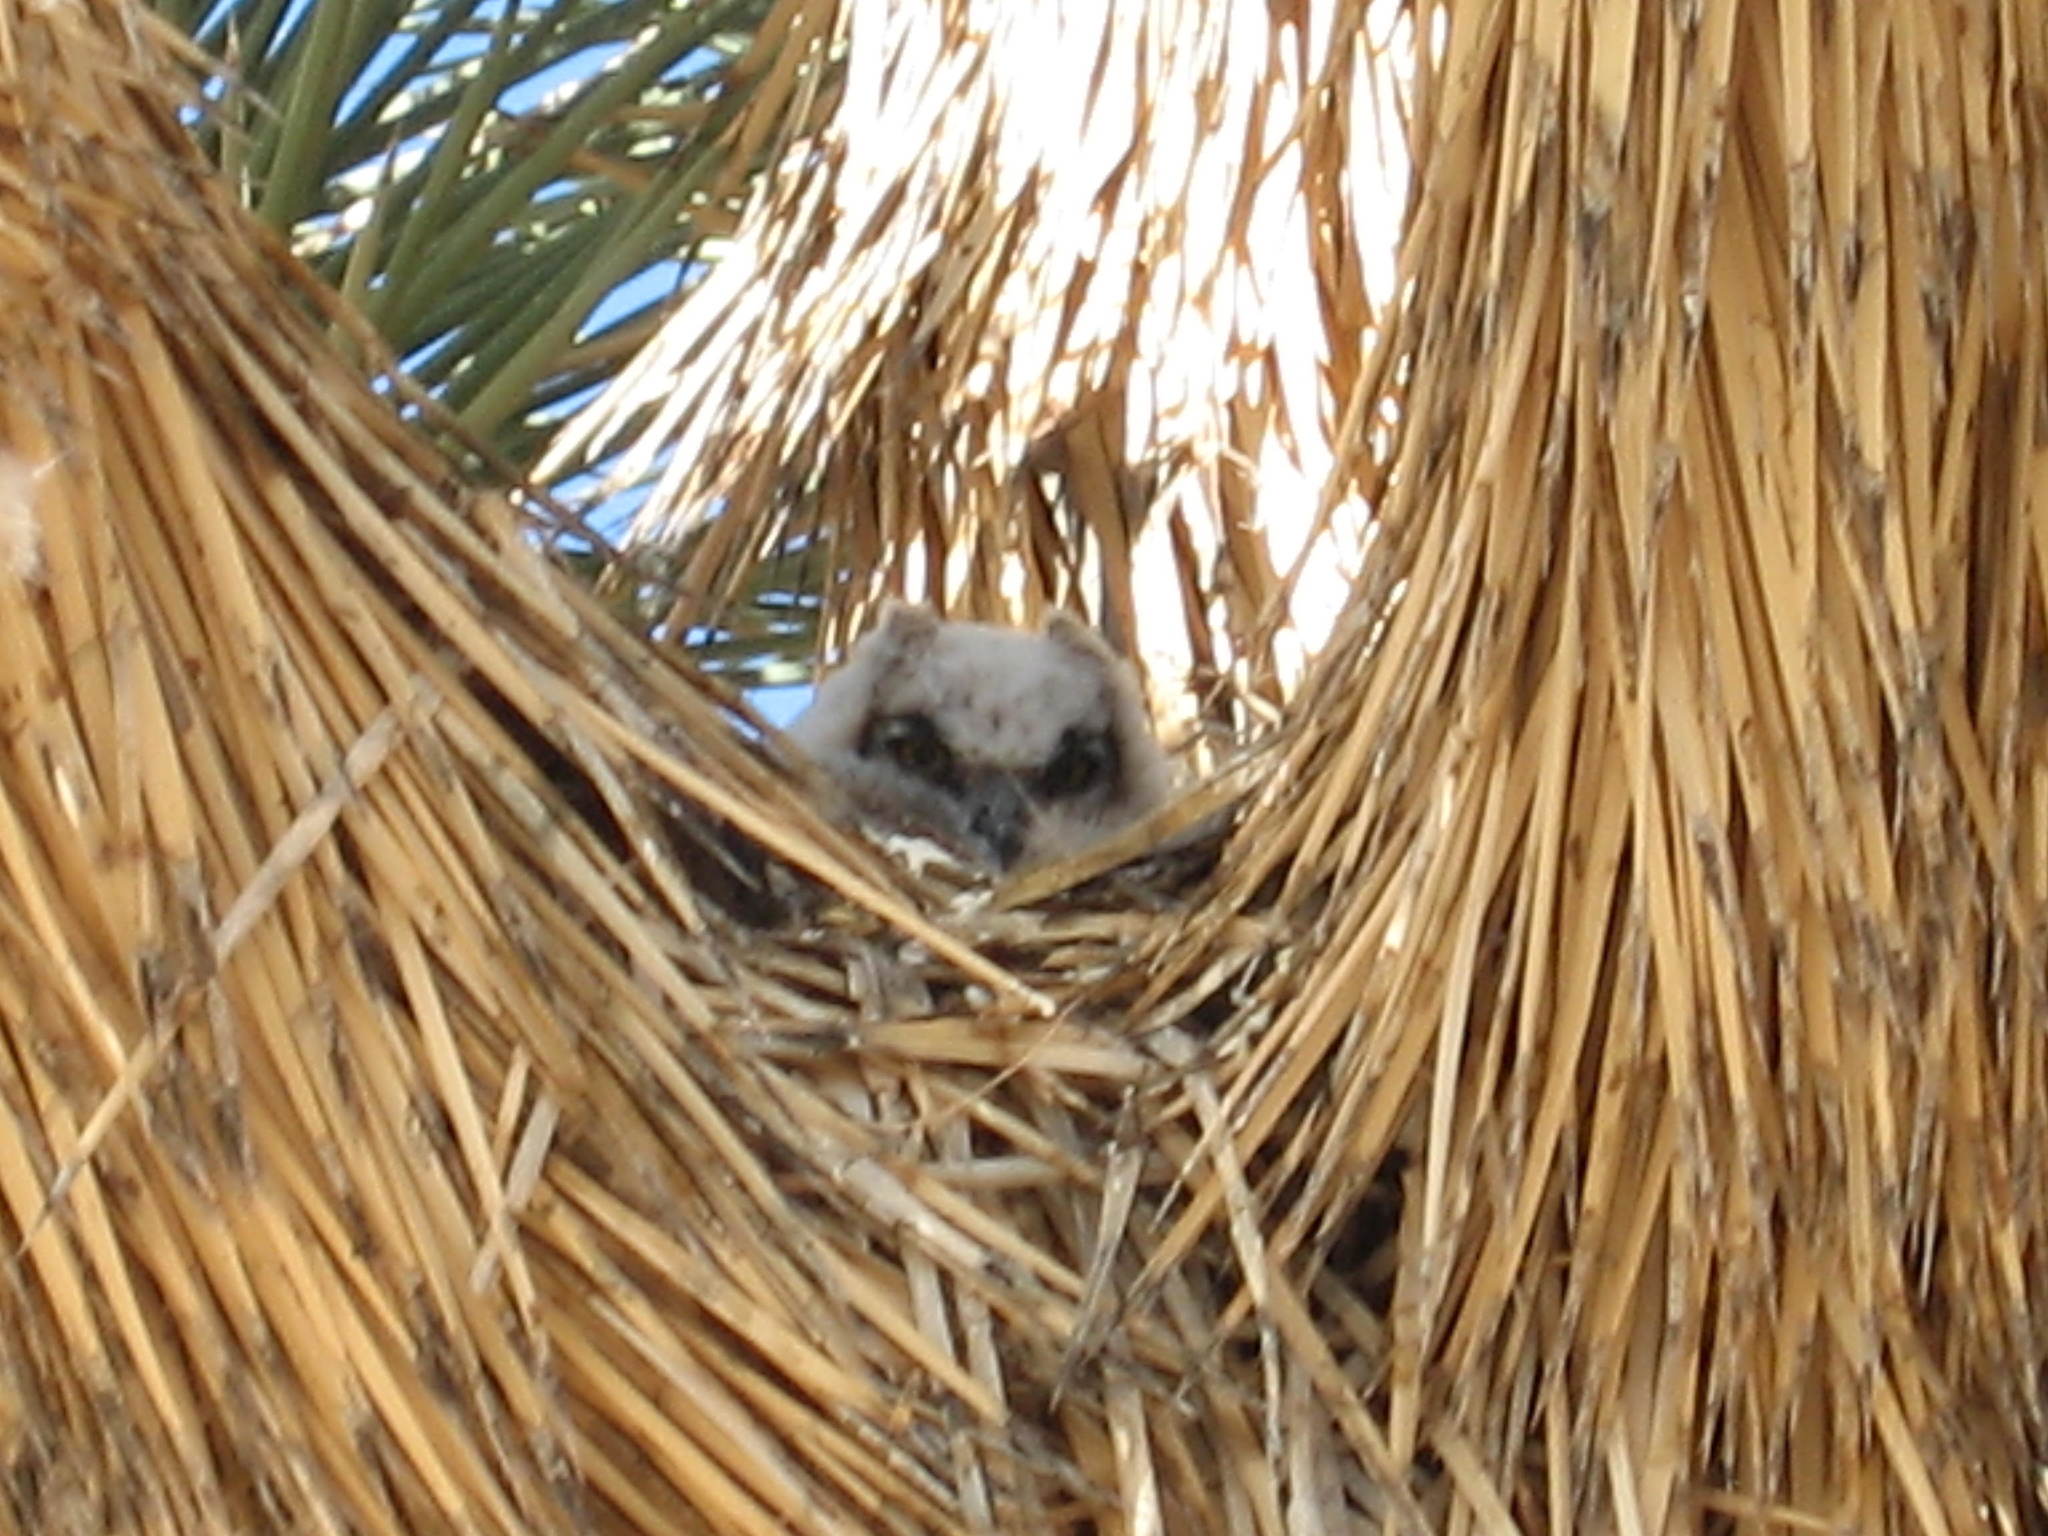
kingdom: Animalia
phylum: Chordata
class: Aves
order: Strigiformes
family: Strigidae
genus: Bubo
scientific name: Bubo virginianus
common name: Great horned owl
